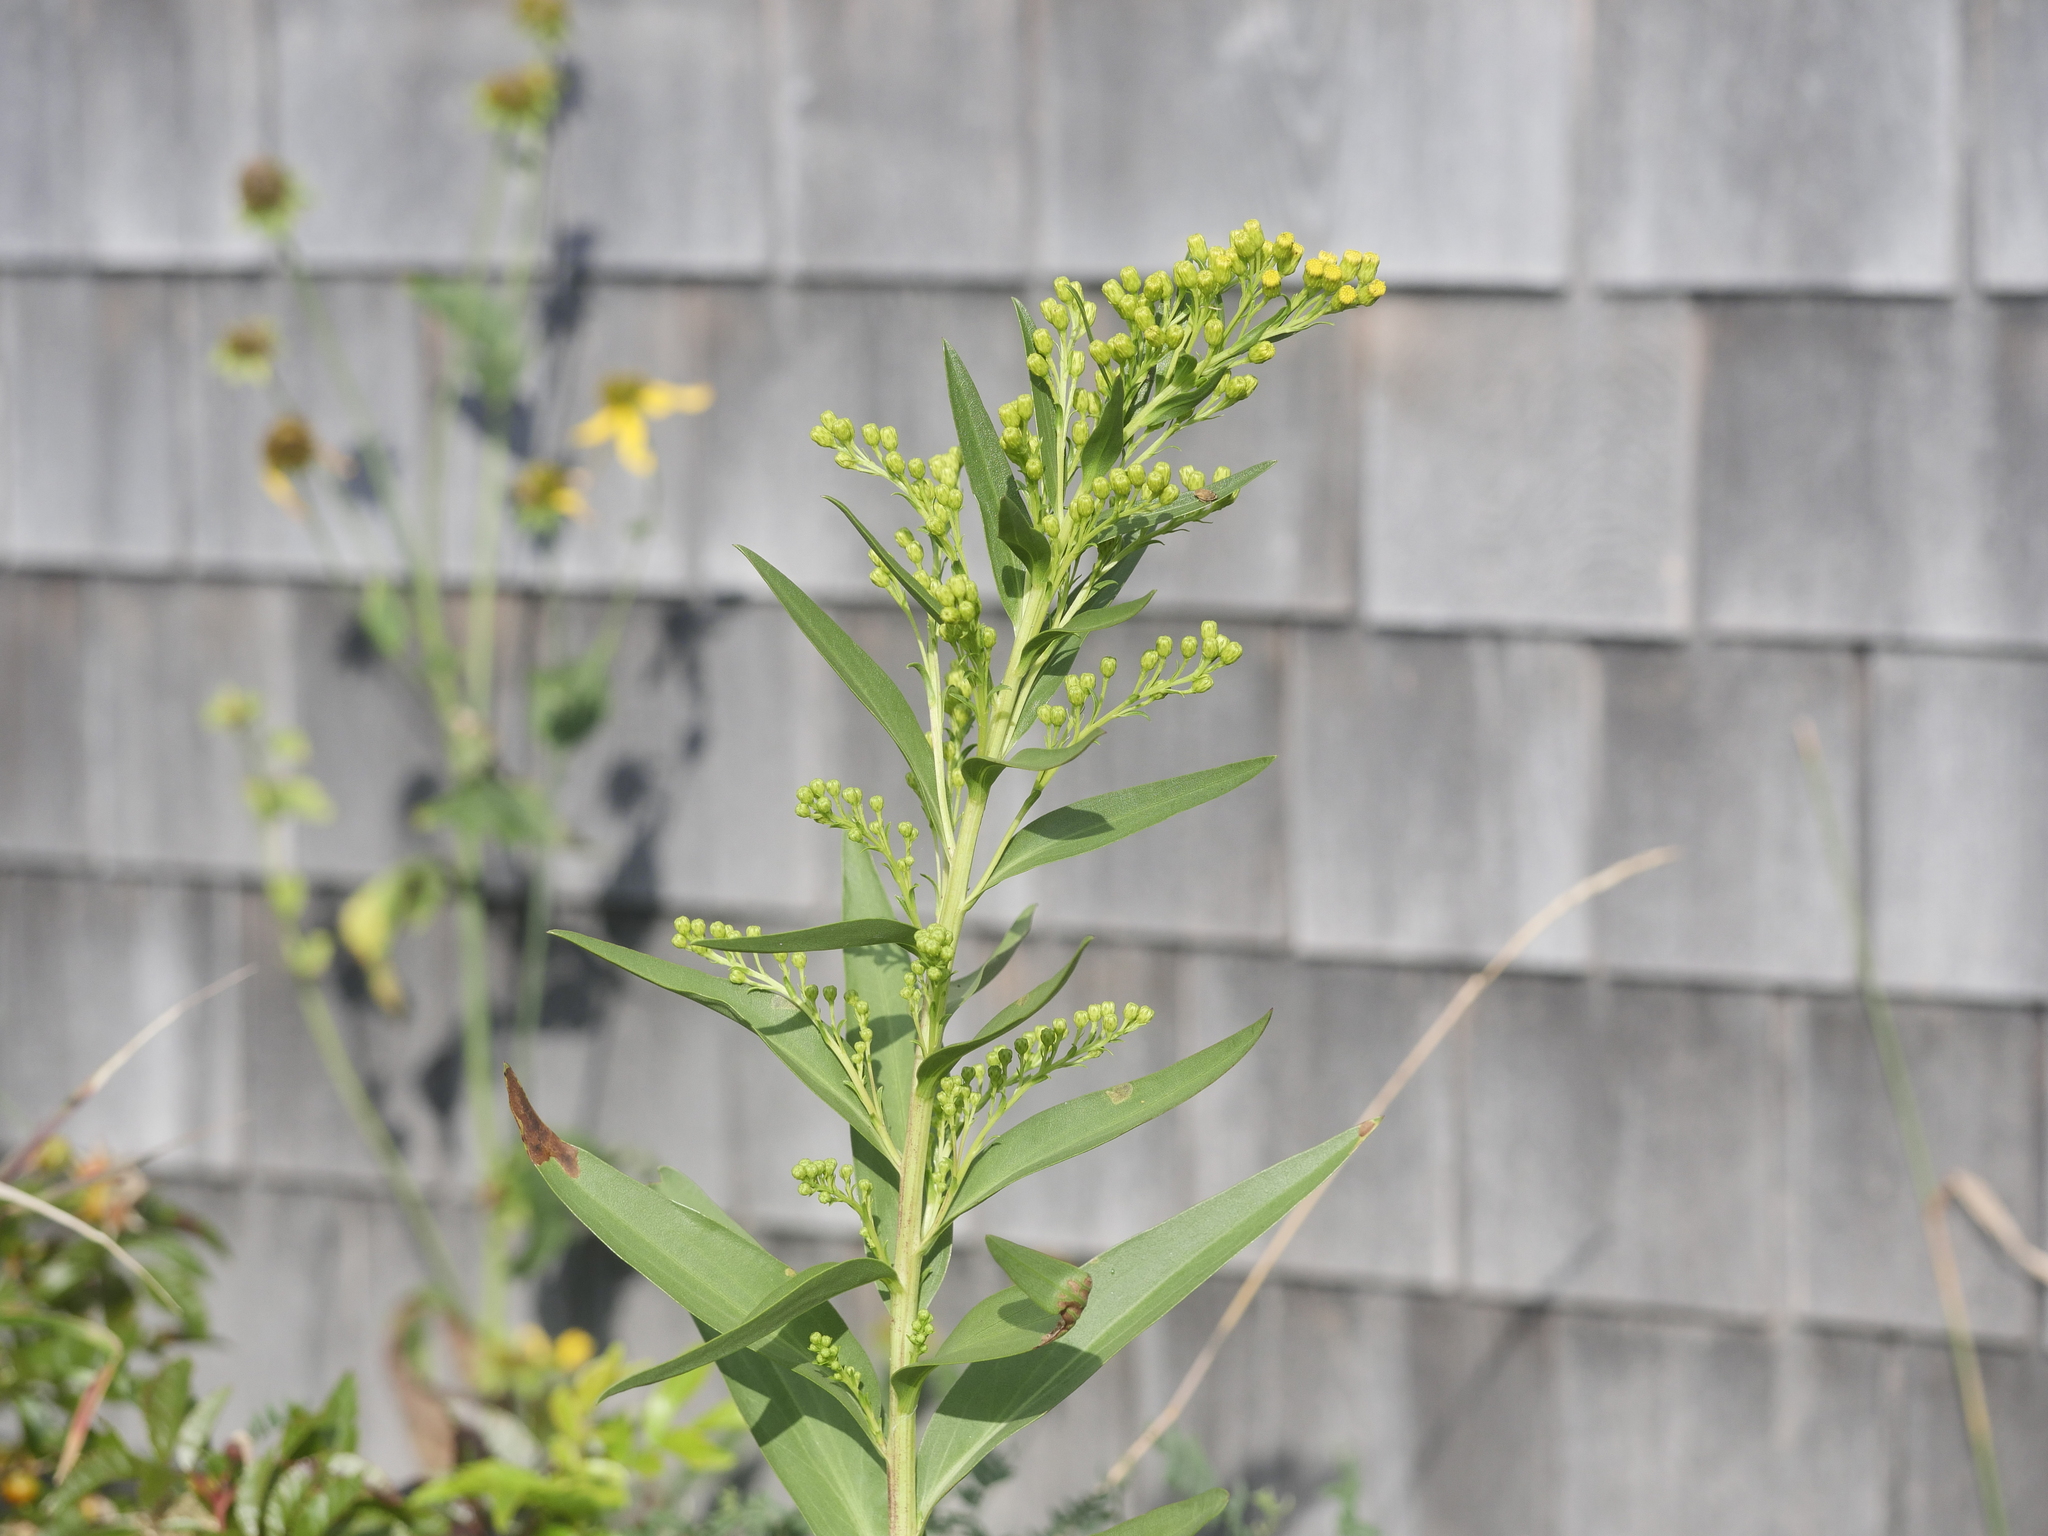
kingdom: Plantae
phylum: Tracheophyta
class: Magnoliopsida
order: Asterales
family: Asteraceae
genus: Solidago
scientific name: Solidago sempervirens
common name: Salt-marsh goldenrod
